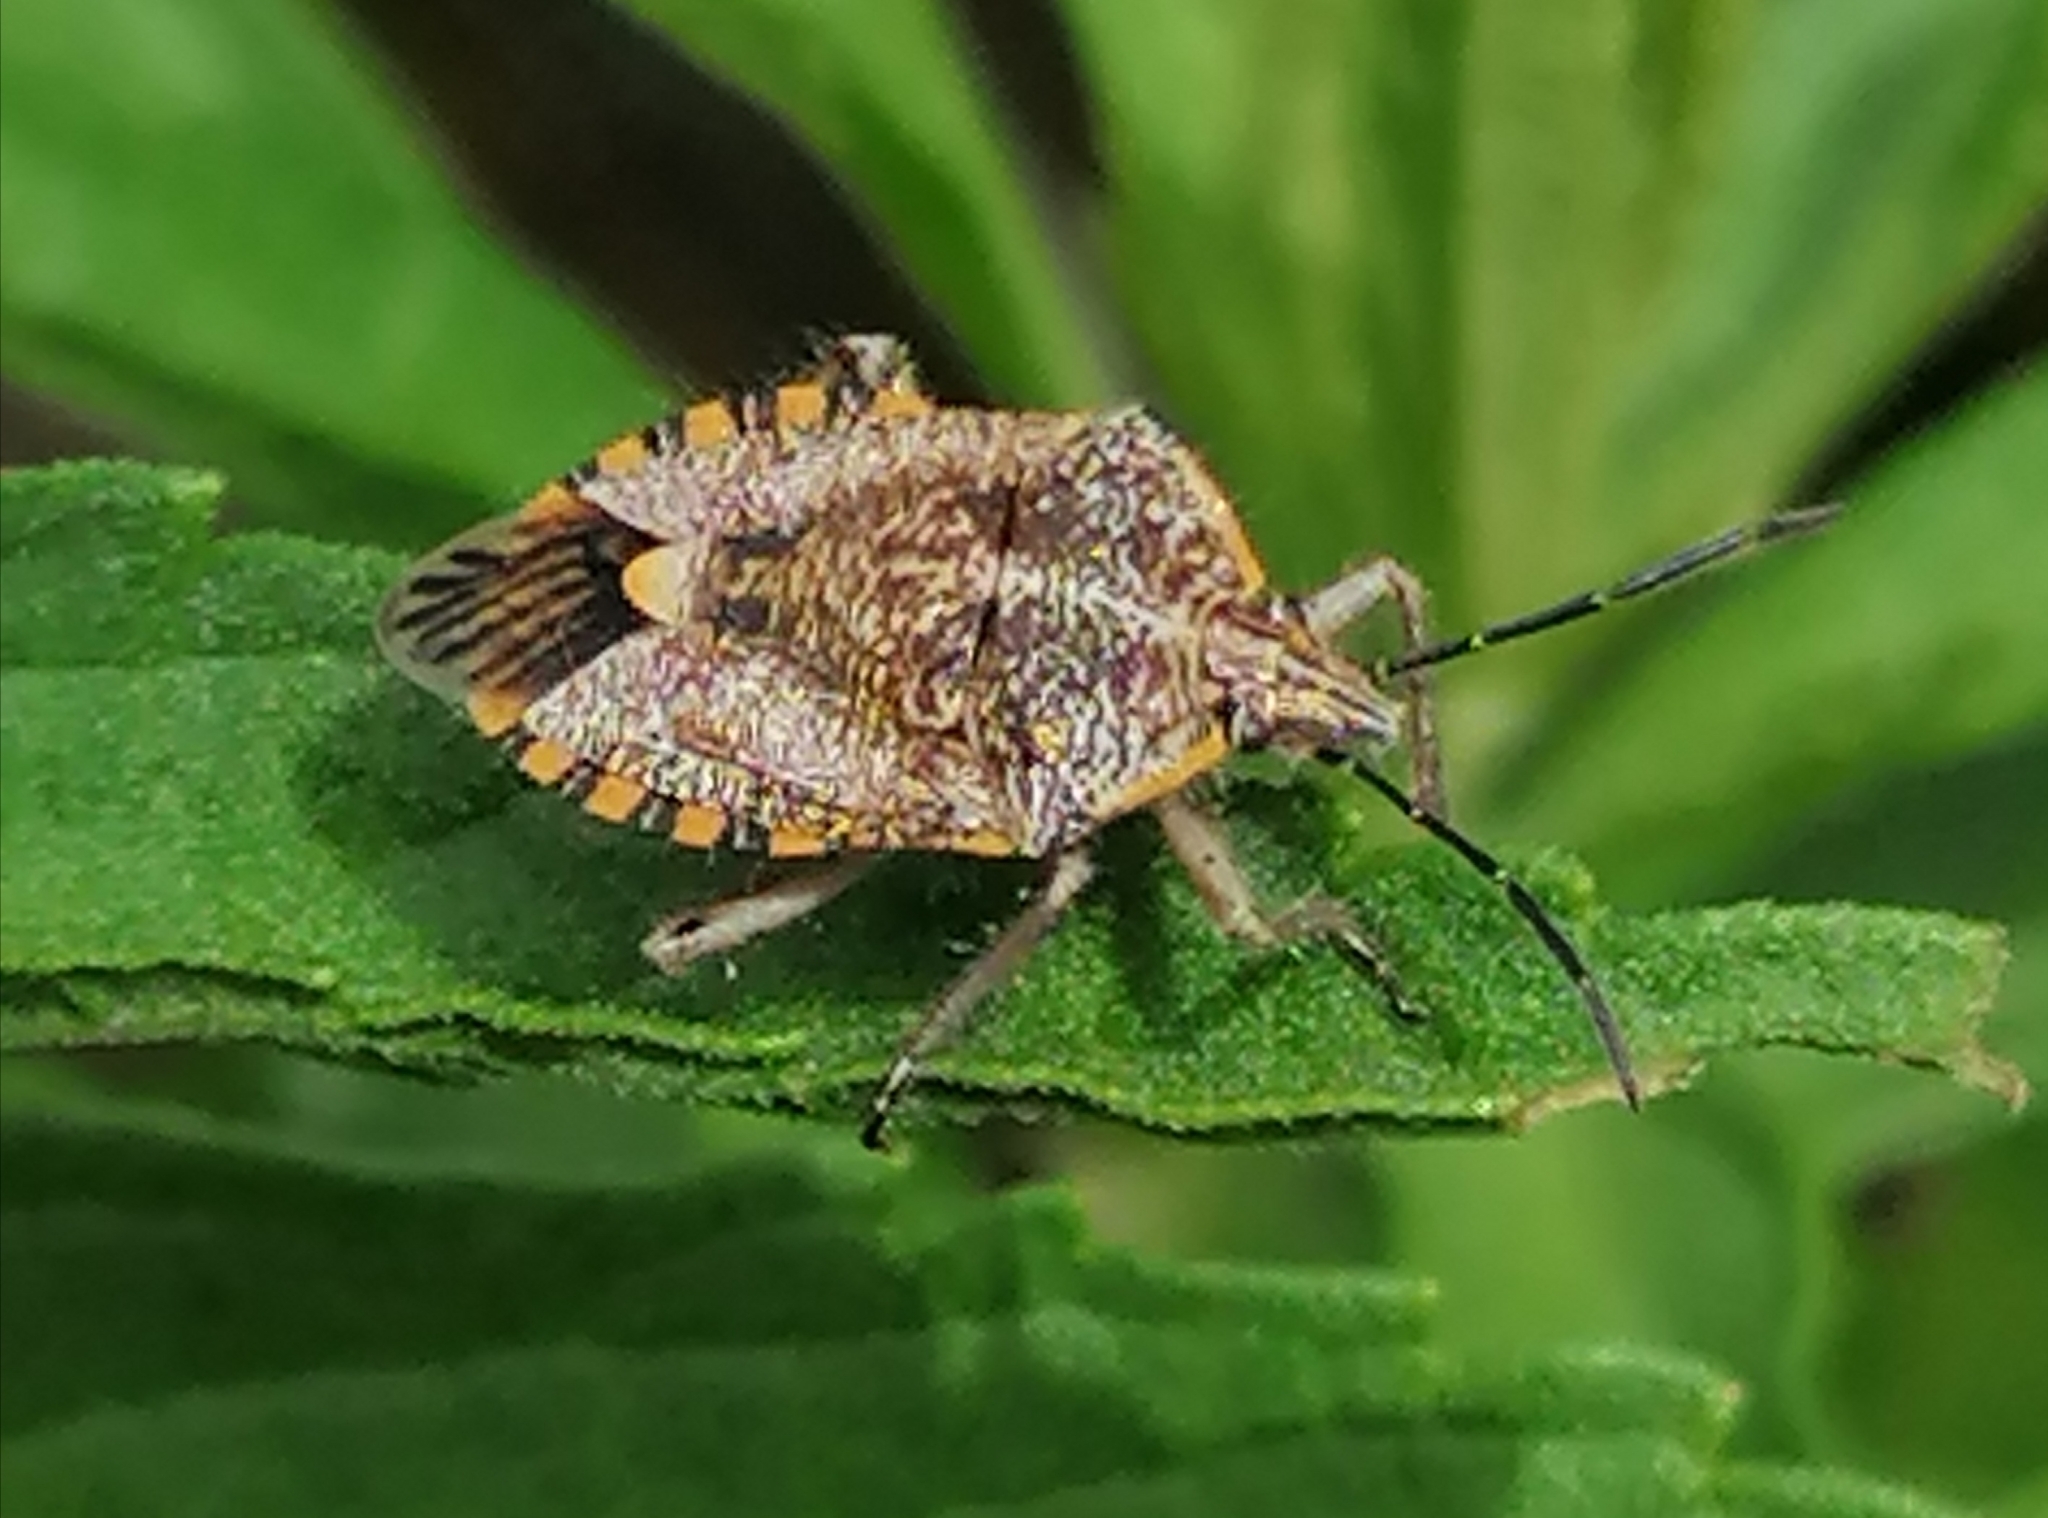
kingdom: Animalia
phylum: Arthropoda
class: Insecta
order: Hemiptera
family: Pentatomidae
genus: Agonoscelis
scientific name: Agonoscelis versicoloratus
